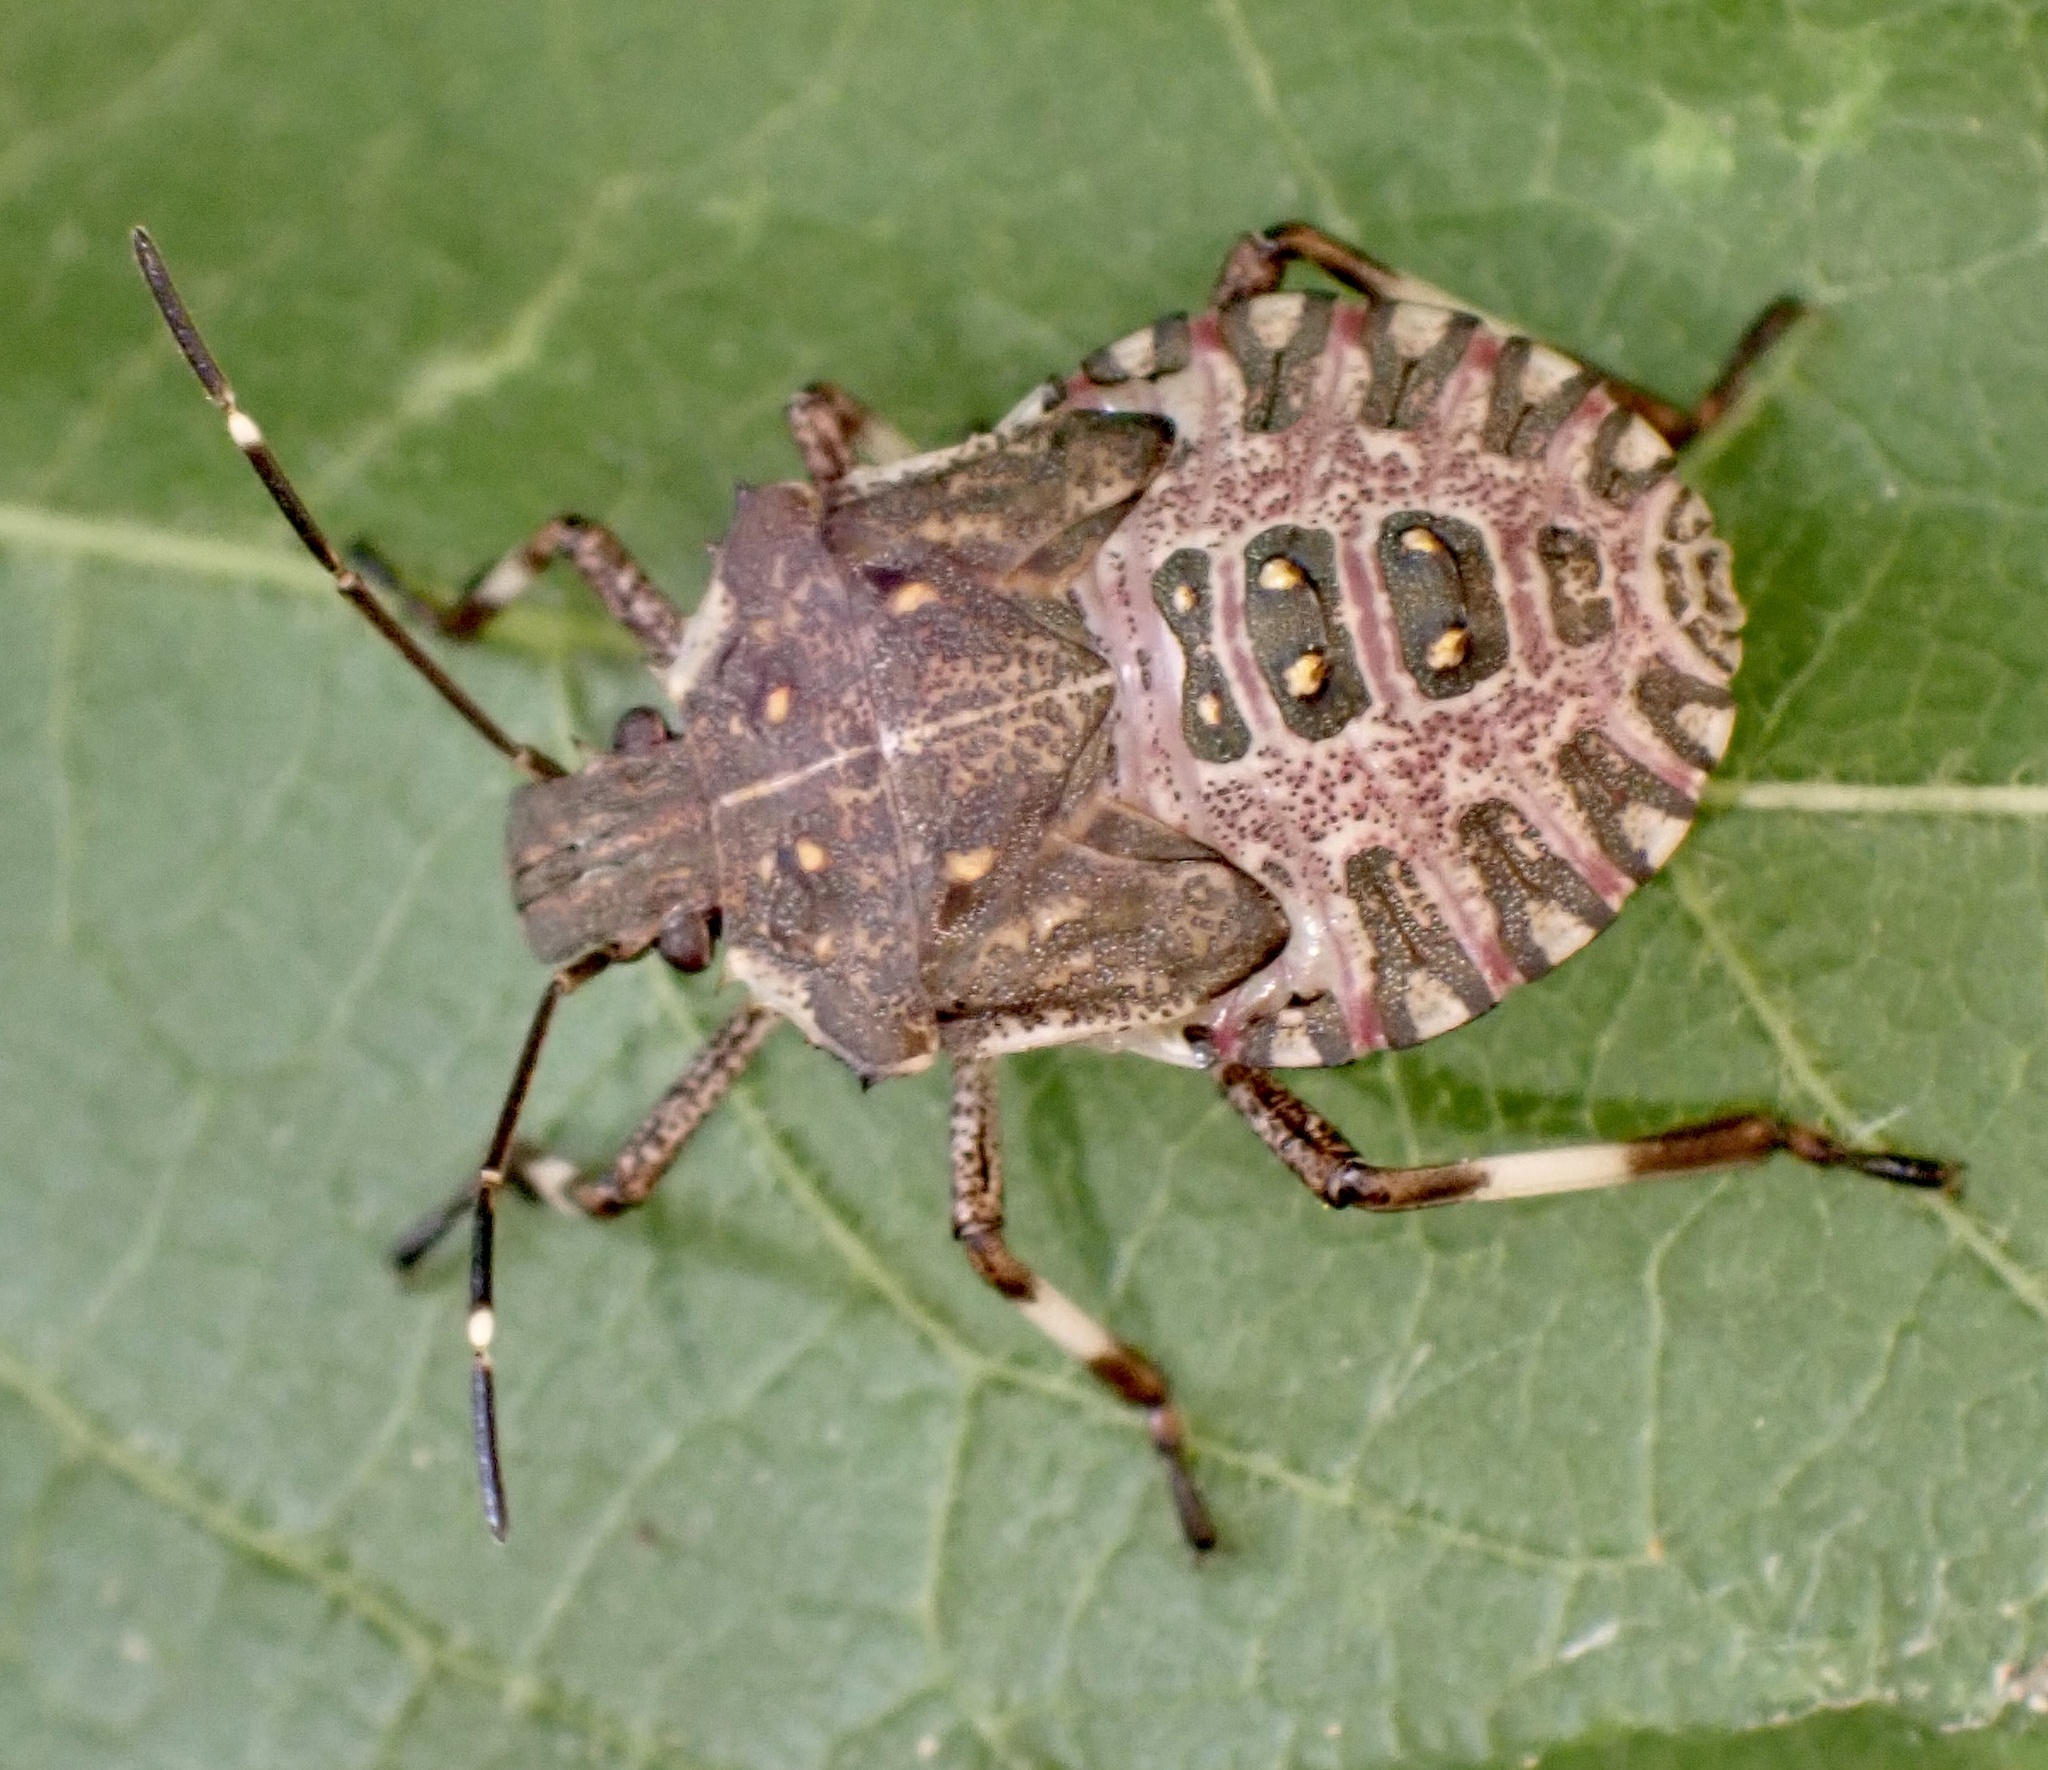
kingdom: Animalia
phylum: Arthropoda
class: Insecta
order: Hemiptera
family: Pentatomidae
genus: Halyomorpha
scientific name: Halyomorpha halys
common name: Brown marmorated stink bug
